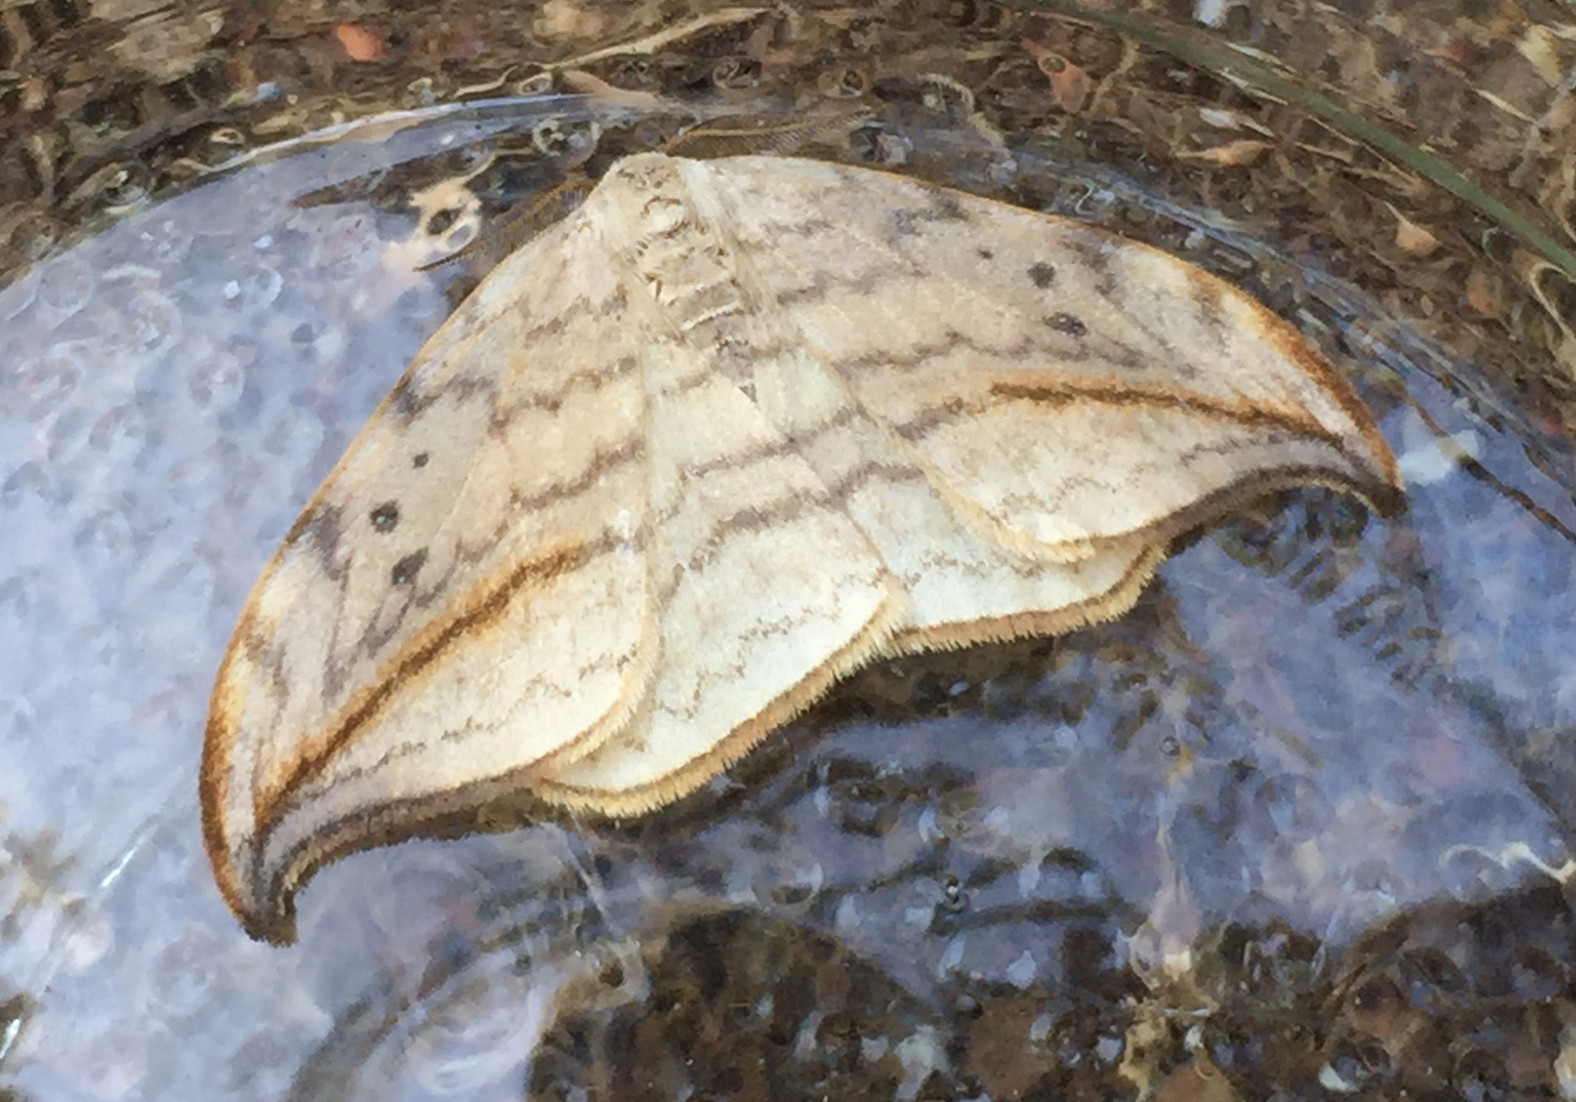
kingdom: Animalia
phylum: Arthropoda
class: Insecta
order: Lepidoptera
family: Drepanidae
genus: Drepana
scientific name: Drepana arcuata
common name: Arched hooktip moth
